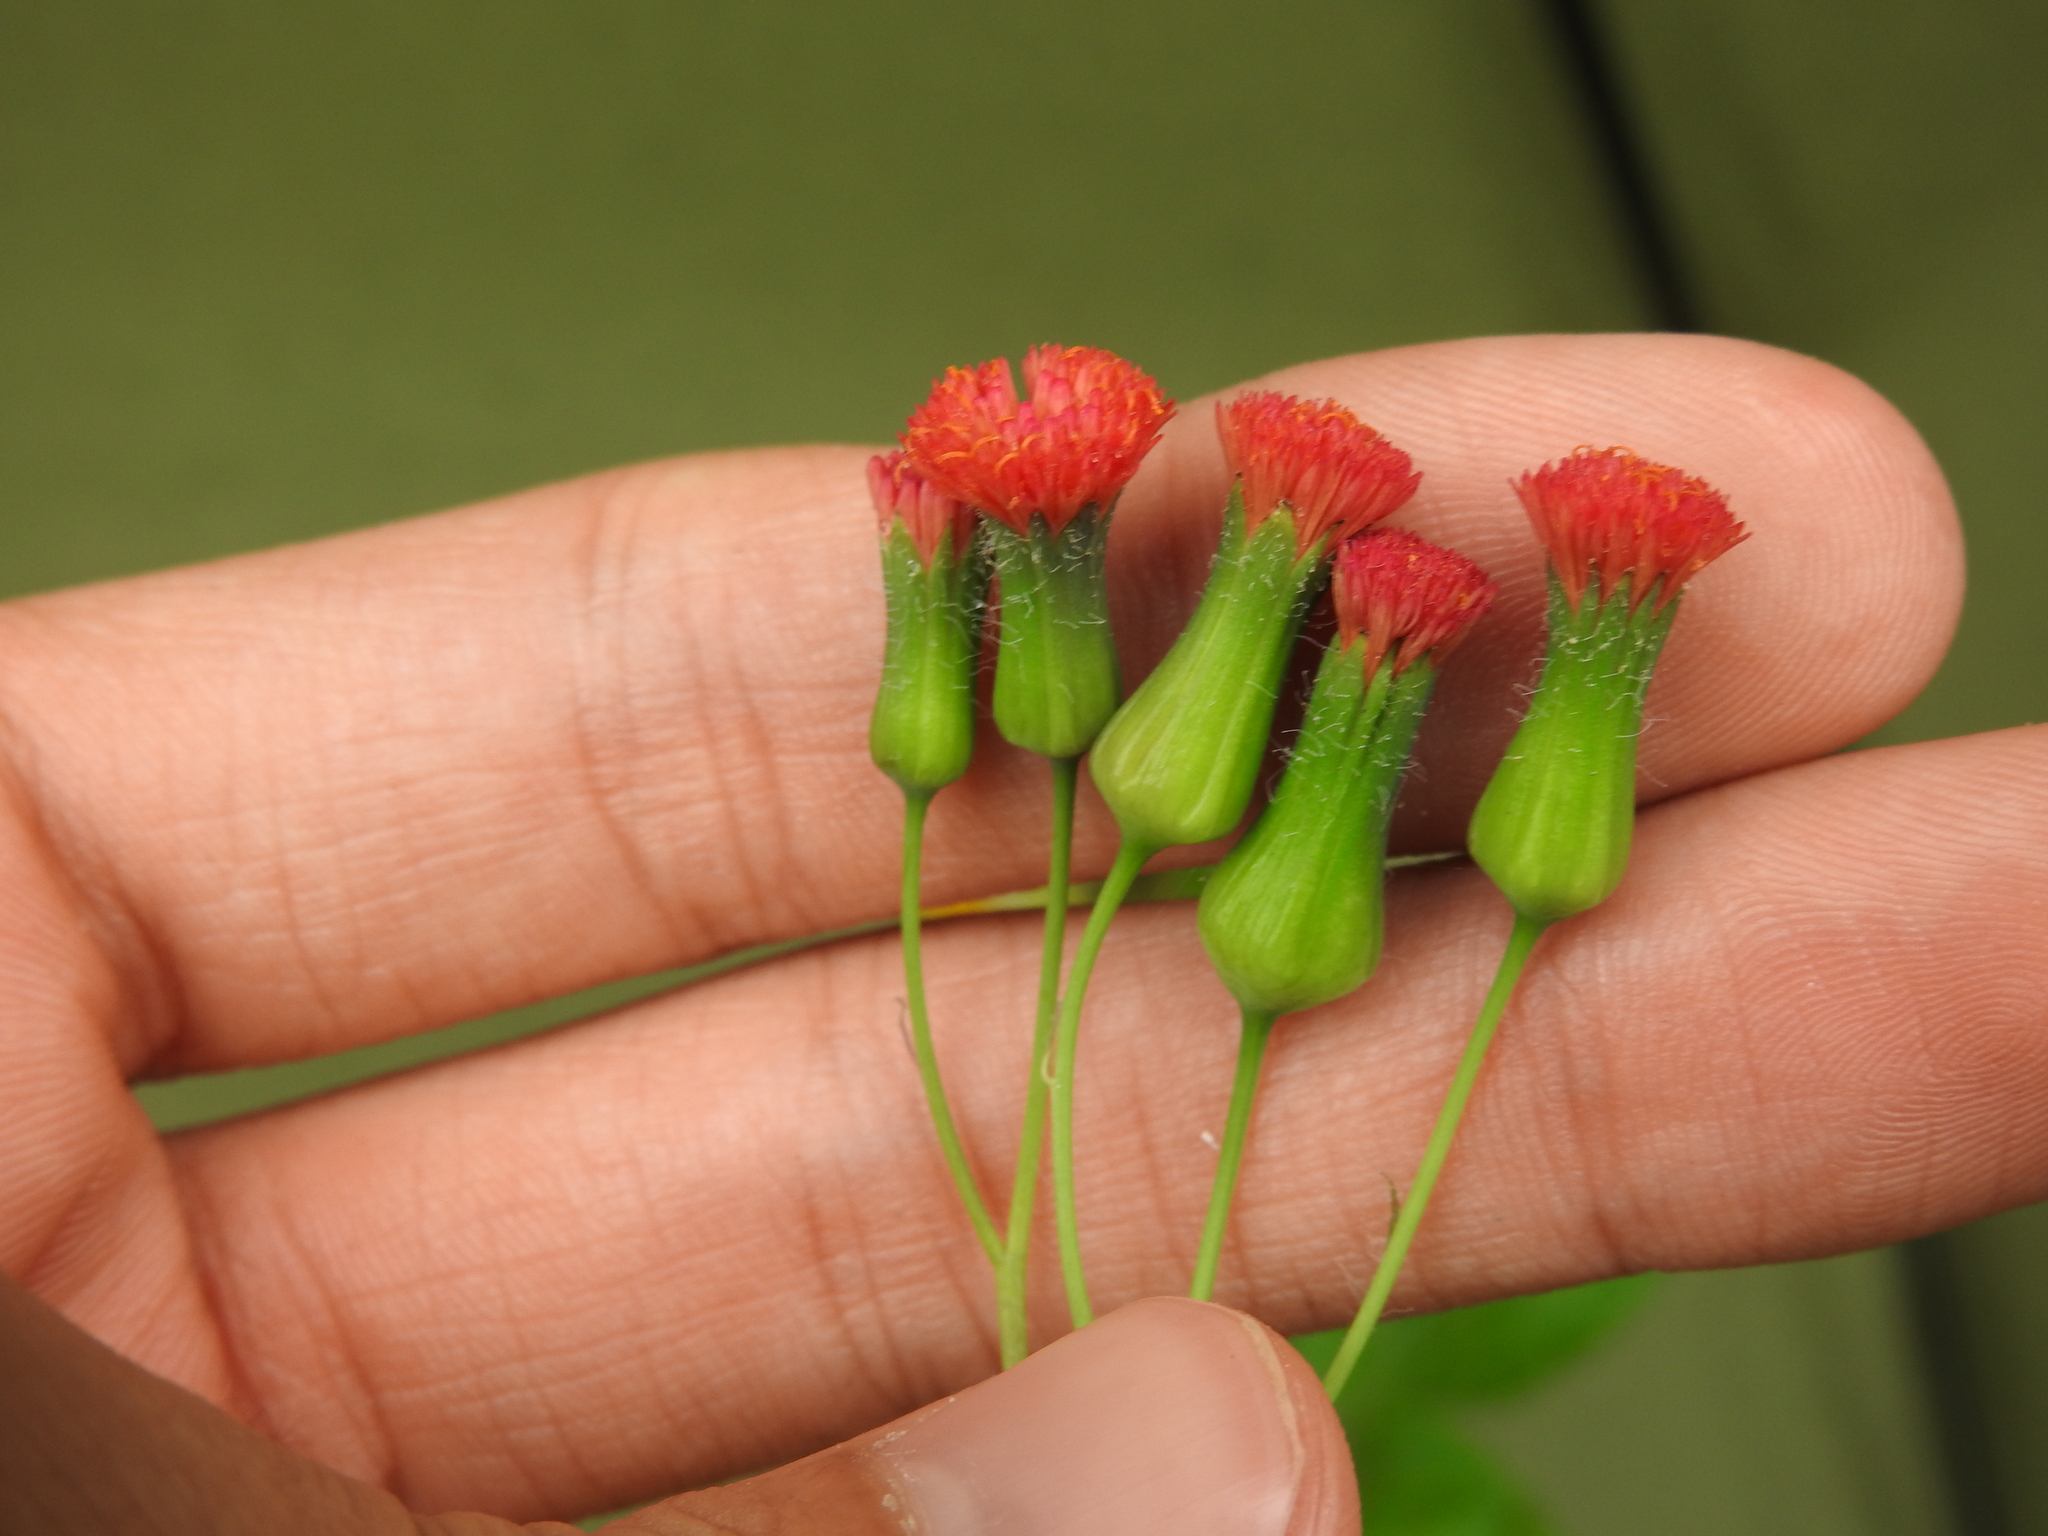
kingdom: Plantae
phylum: Tracheophyta
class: Magnoliopsida
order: Asterales
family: Asteraceae
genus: Emilia
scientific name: Emilia fosbergii
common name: Florida tasselflower
